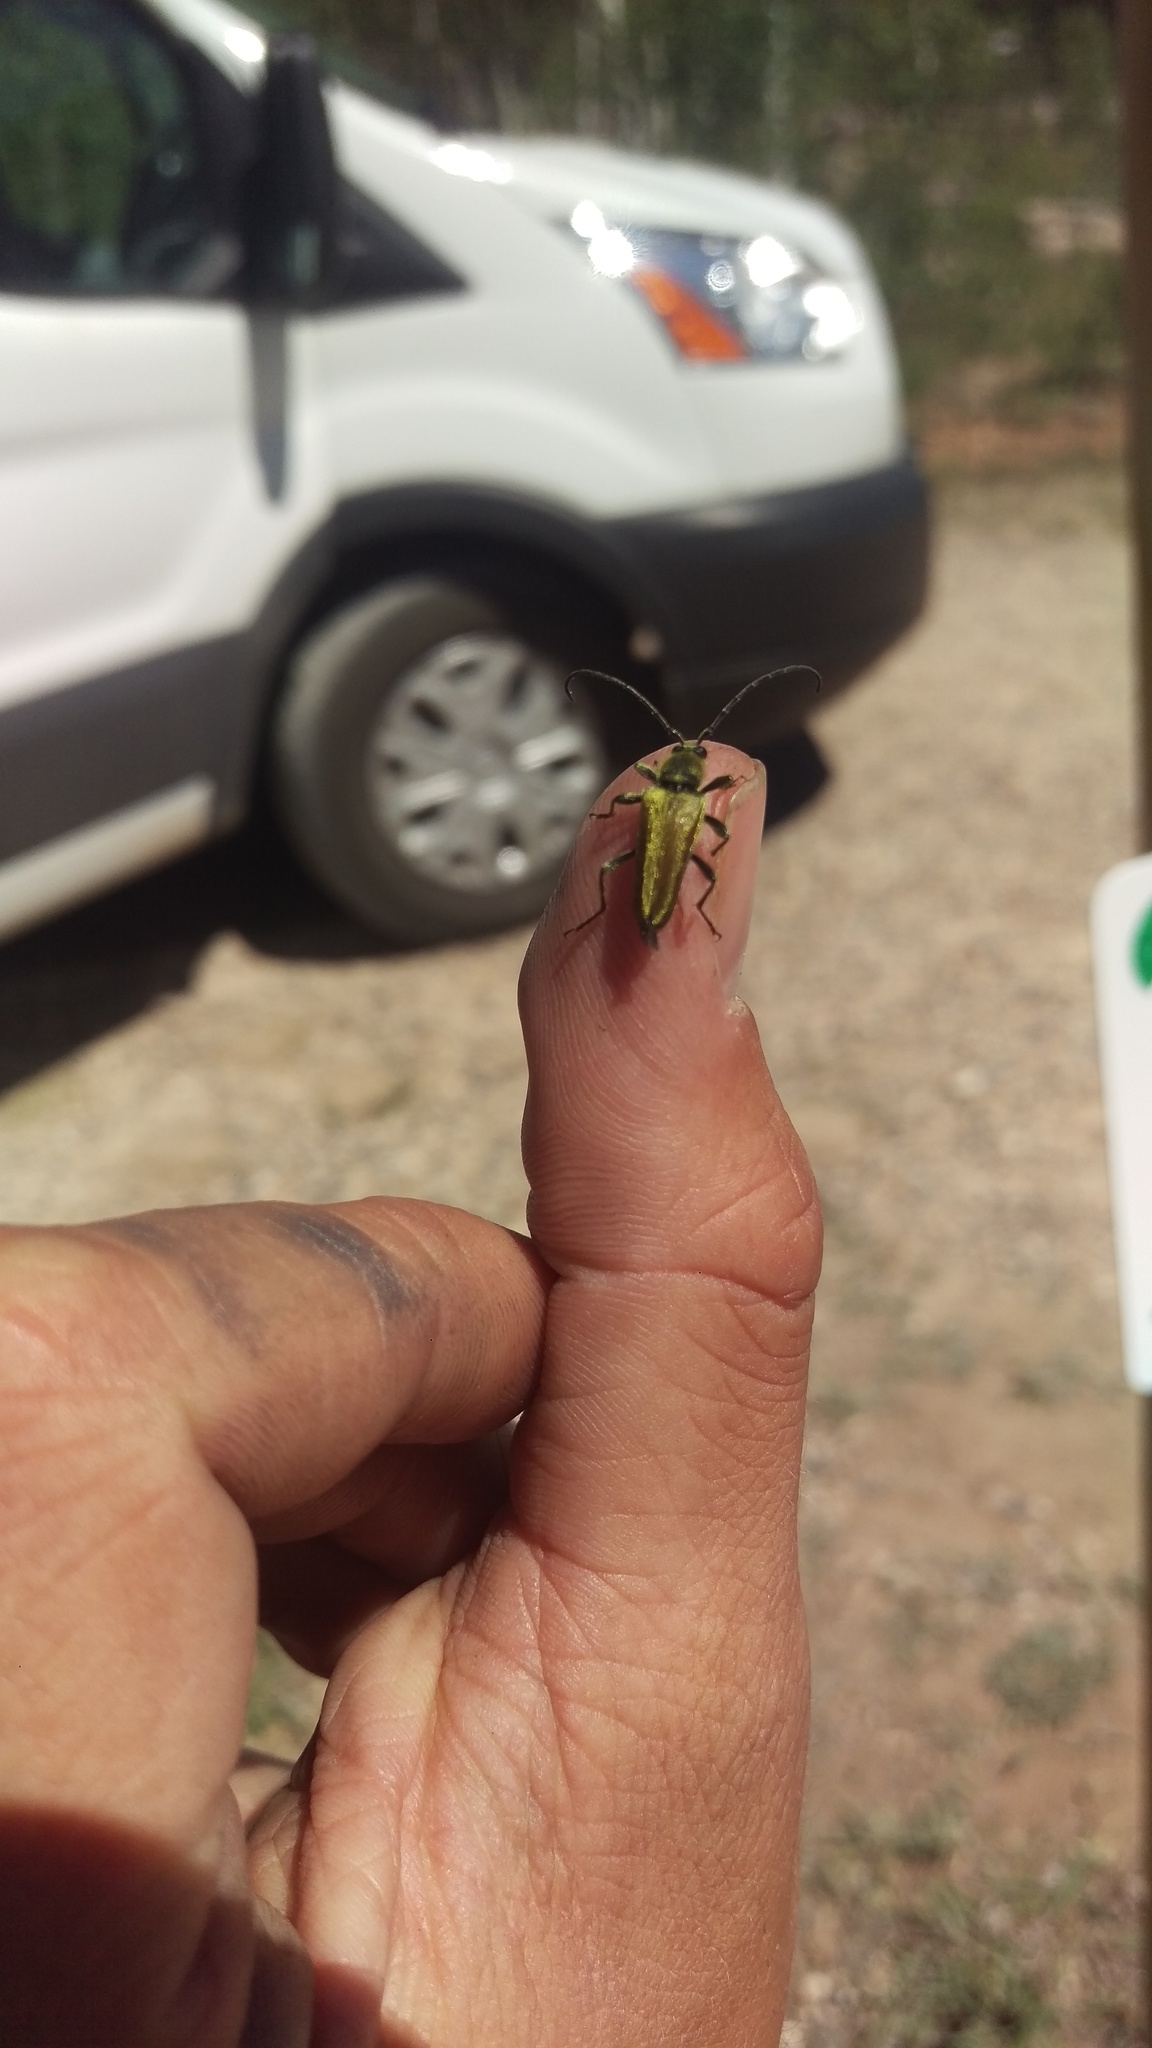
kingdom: Animalia
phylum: Arthropoda
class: Insecta
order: Coleoptera
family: Cerambycidae
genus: Cosmosalia
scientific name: Cosmosalia chrysocoma
